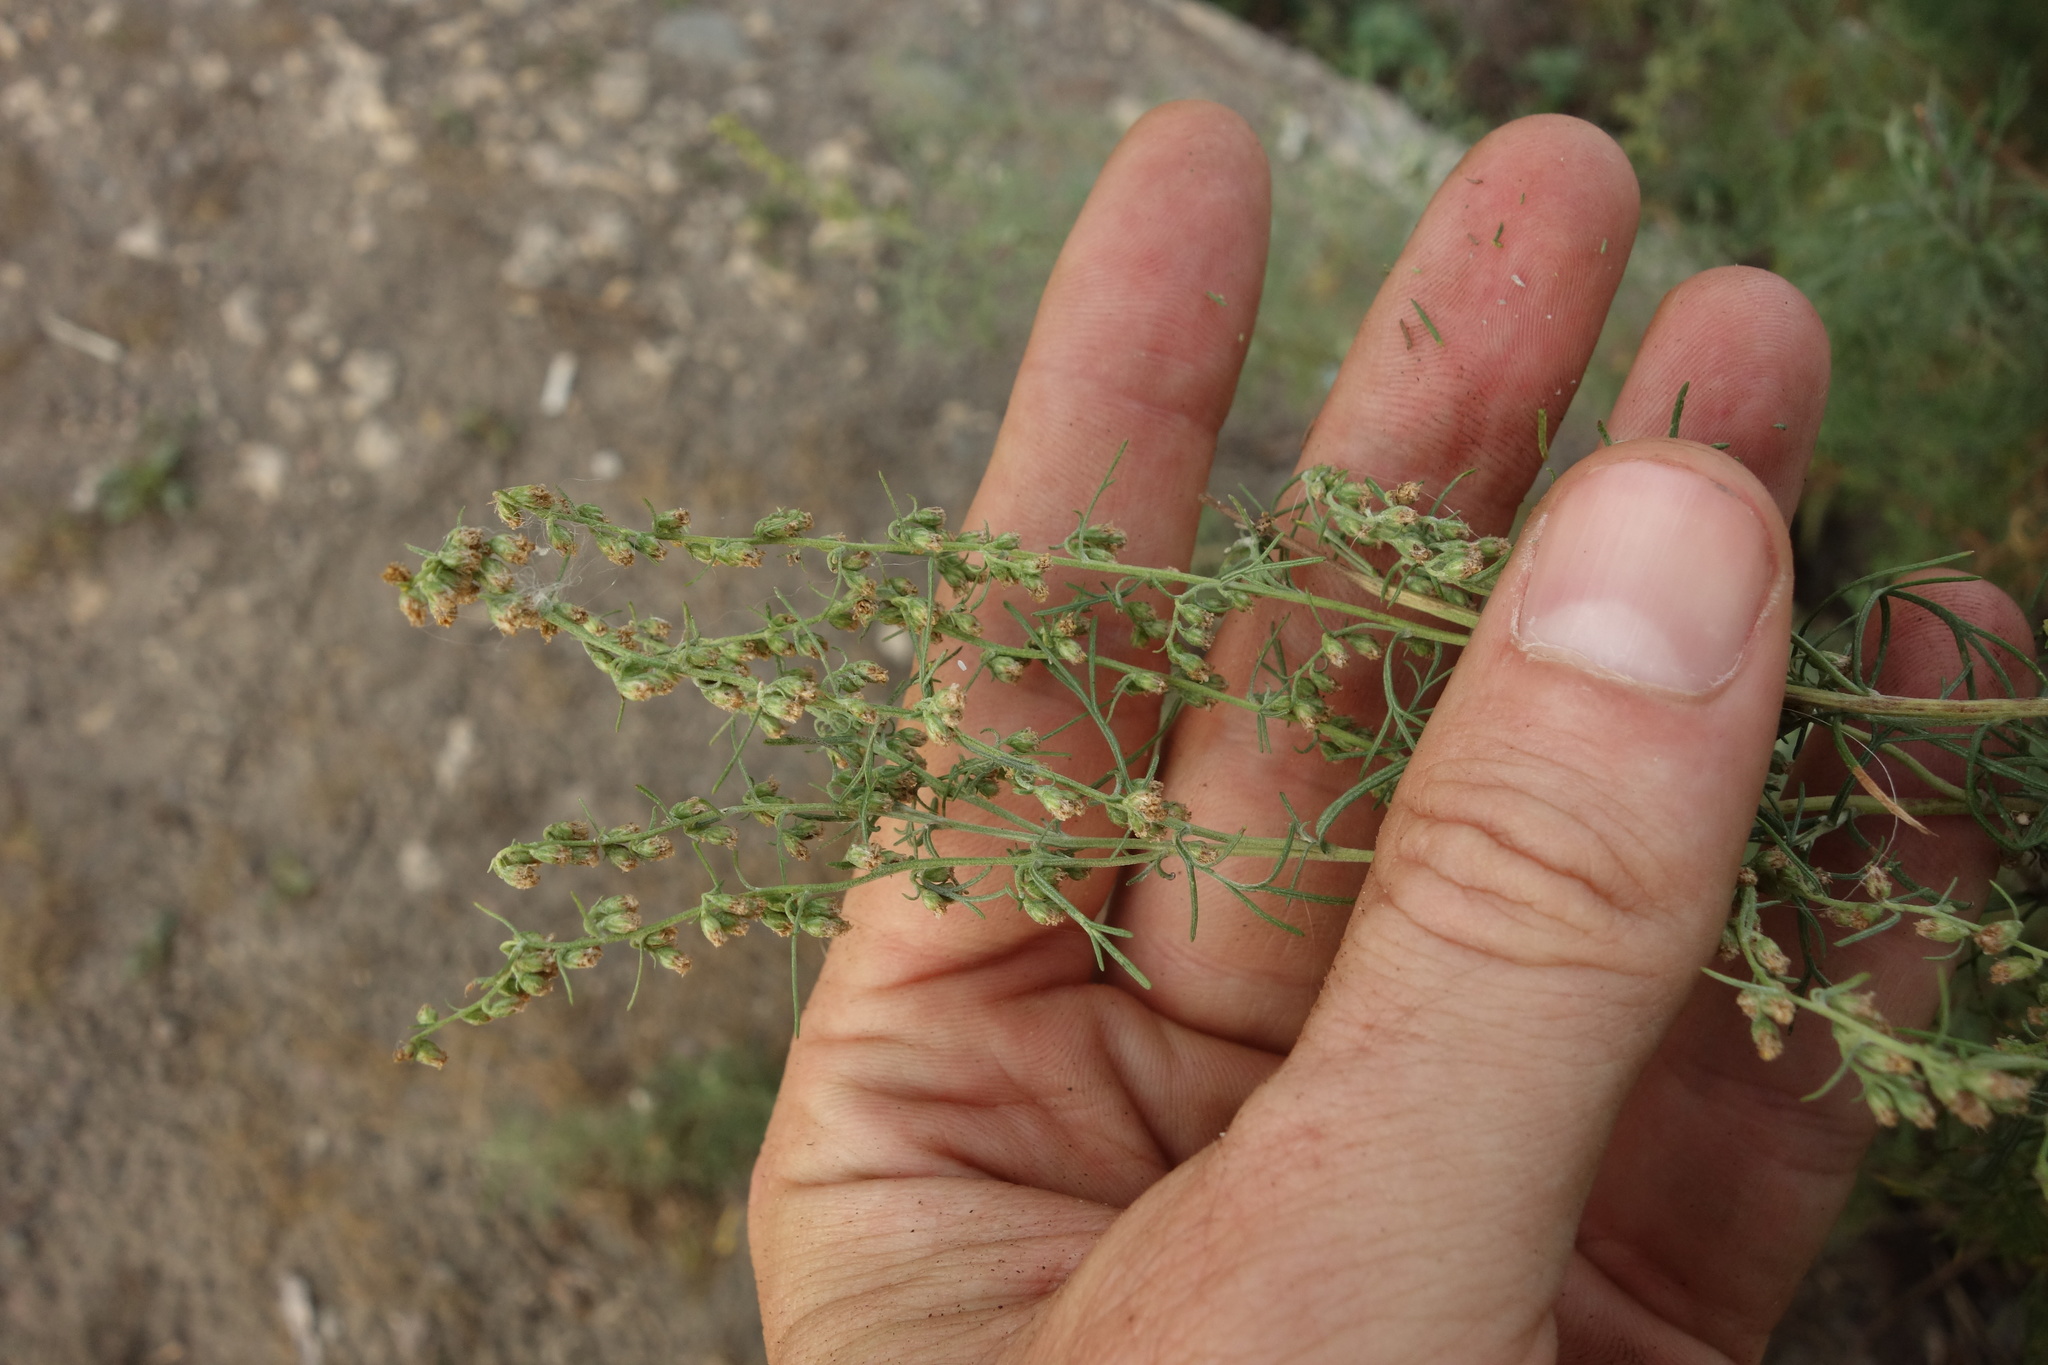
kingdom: Plantae
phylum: Tracheophyta
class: Magnoliopsida
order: Asterales
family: Asteraceae
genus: Artemisia
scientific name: Artemisia abrotanum
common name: Southernwood
